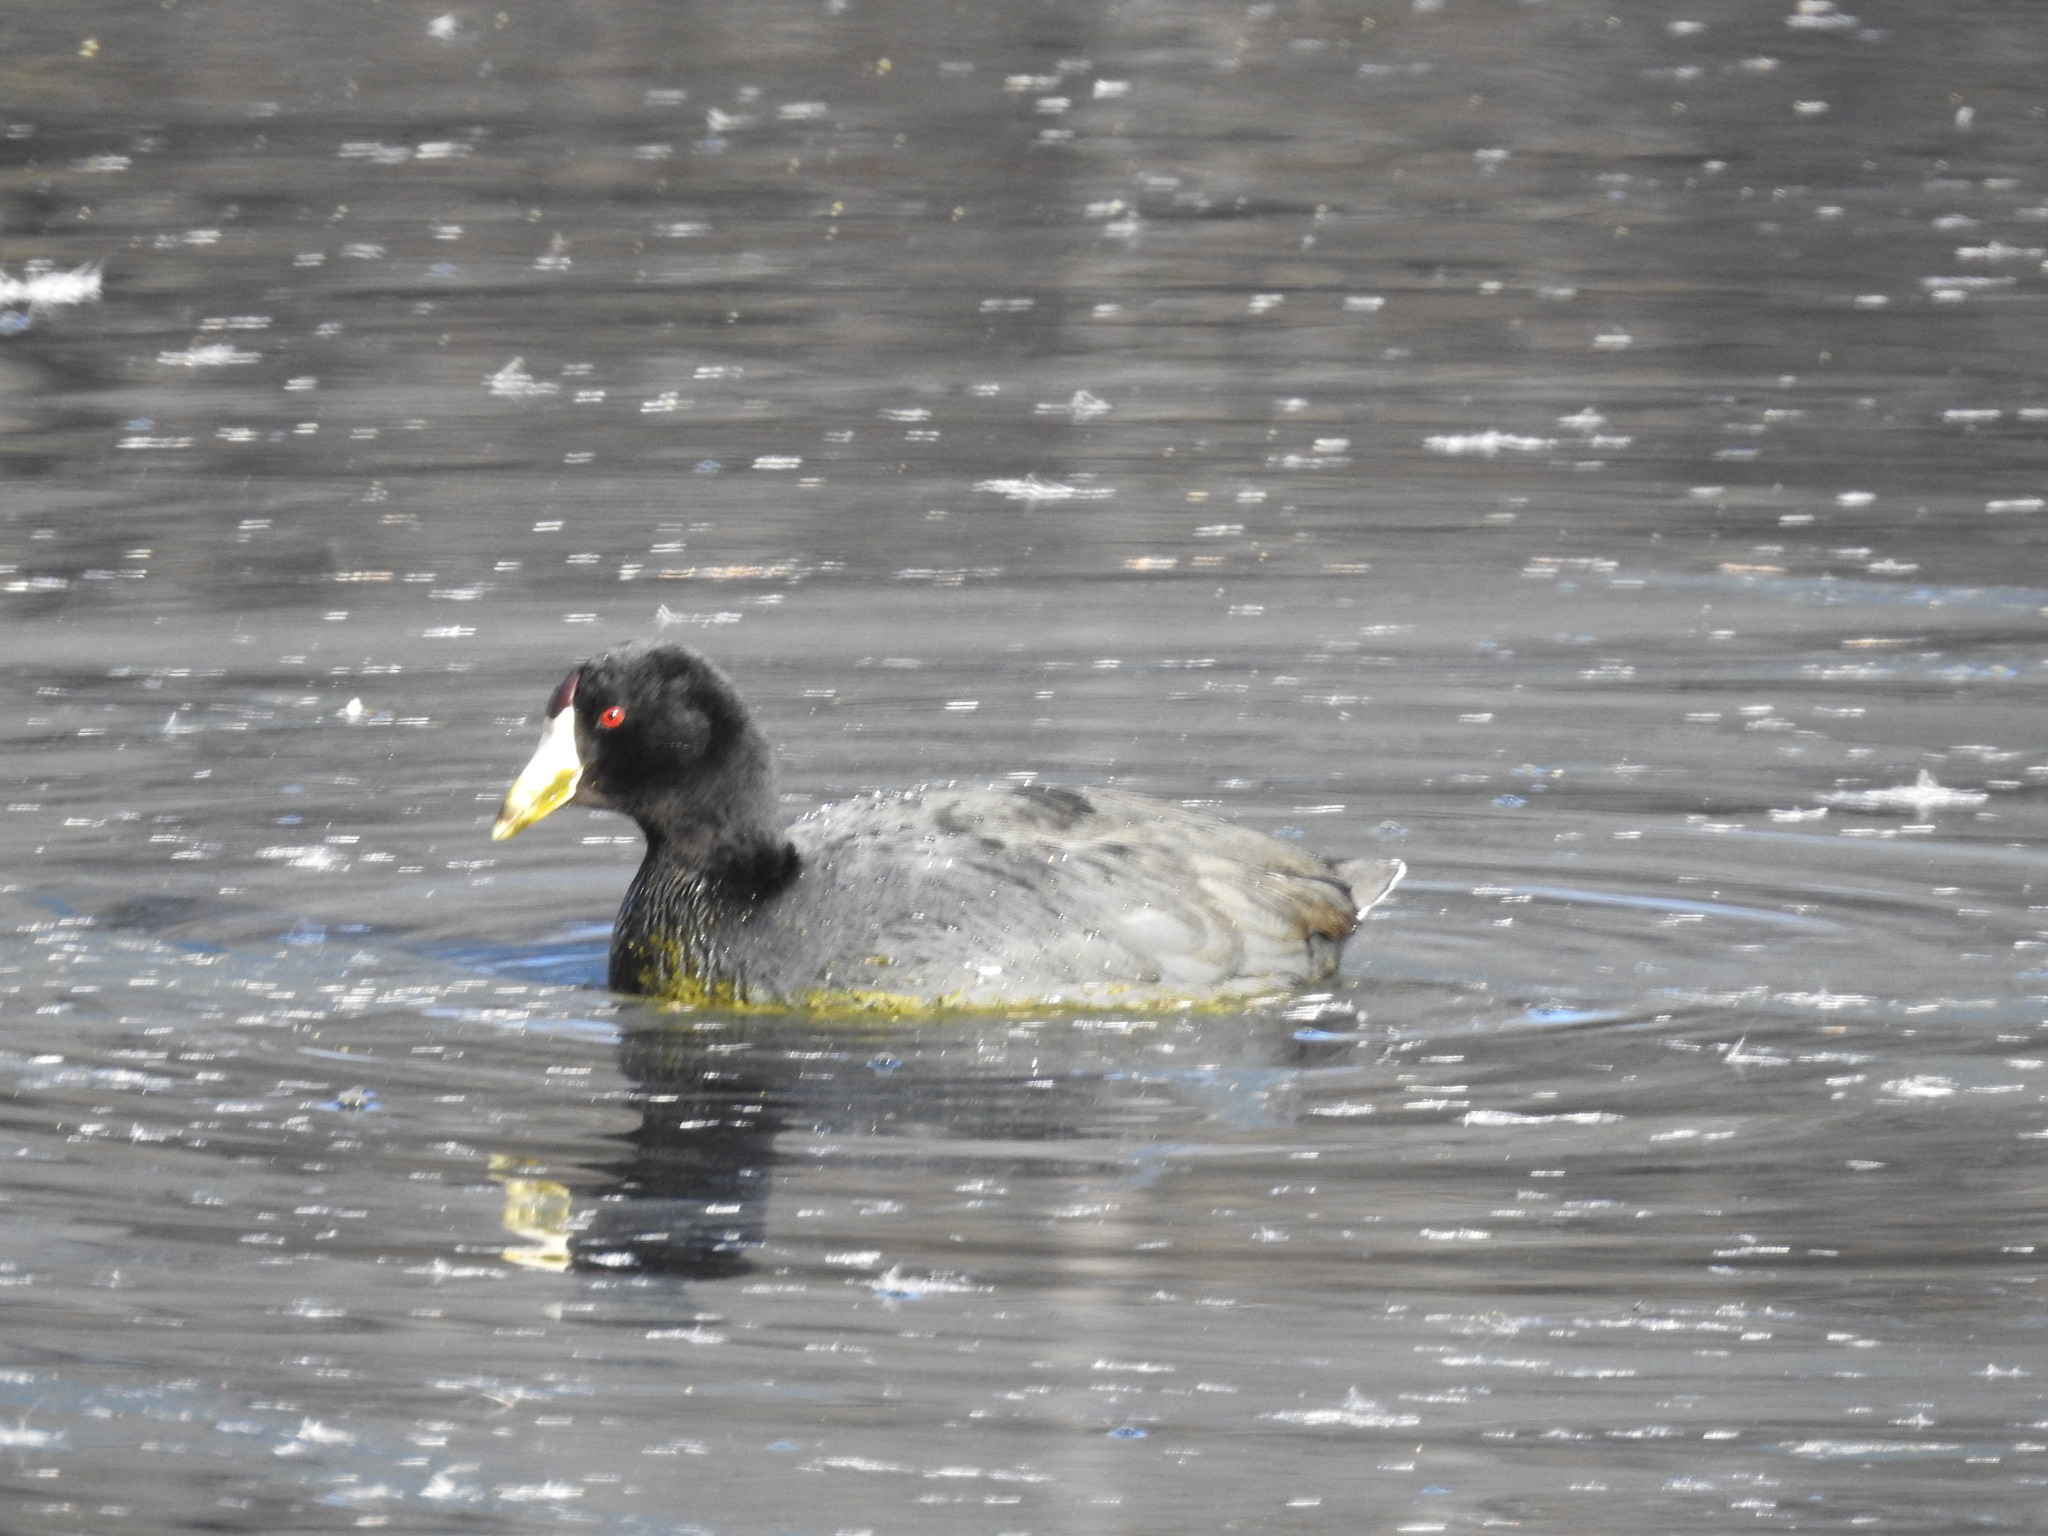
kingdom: Animalia
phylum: Chordata
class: Aves
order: Gruiformes
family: Rallidae
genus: Fulica
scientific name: Fulica americana
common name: American coot
